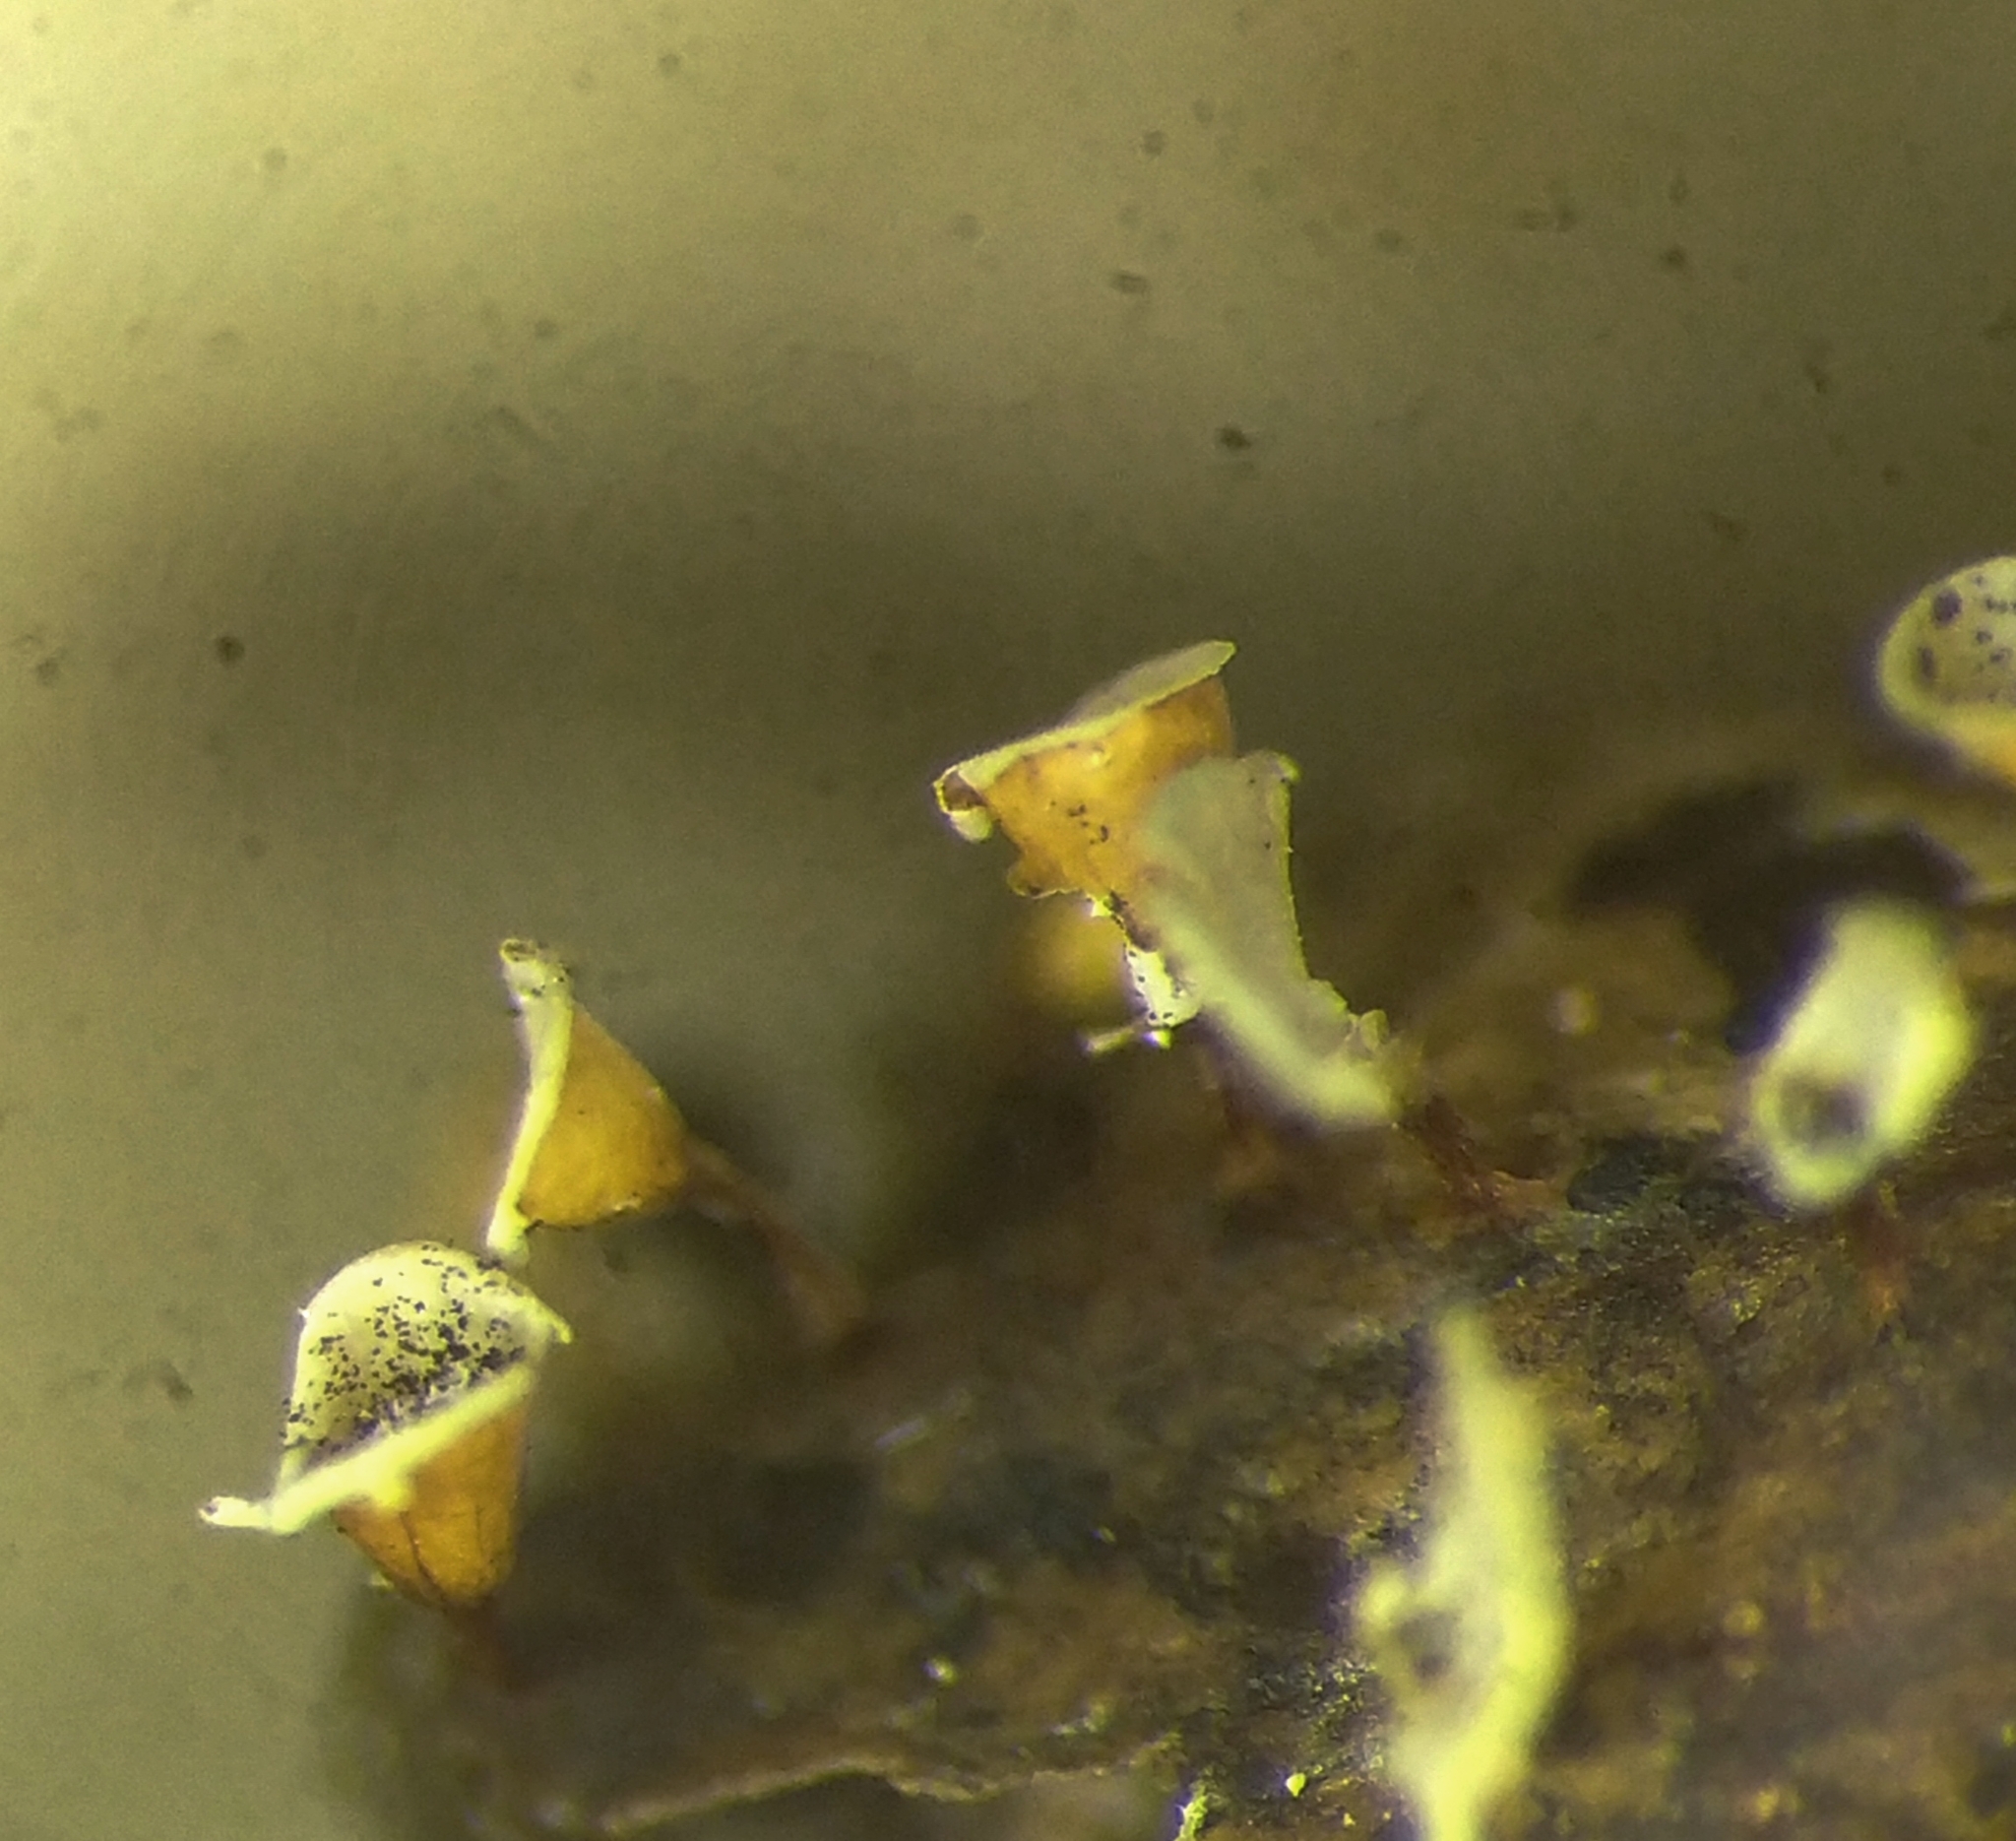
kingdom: Protozoa
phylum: Mycetozoa
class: Myxomycetes
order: Physarales
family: Physaraceae
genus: Craterium
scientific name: Craterium minutum
